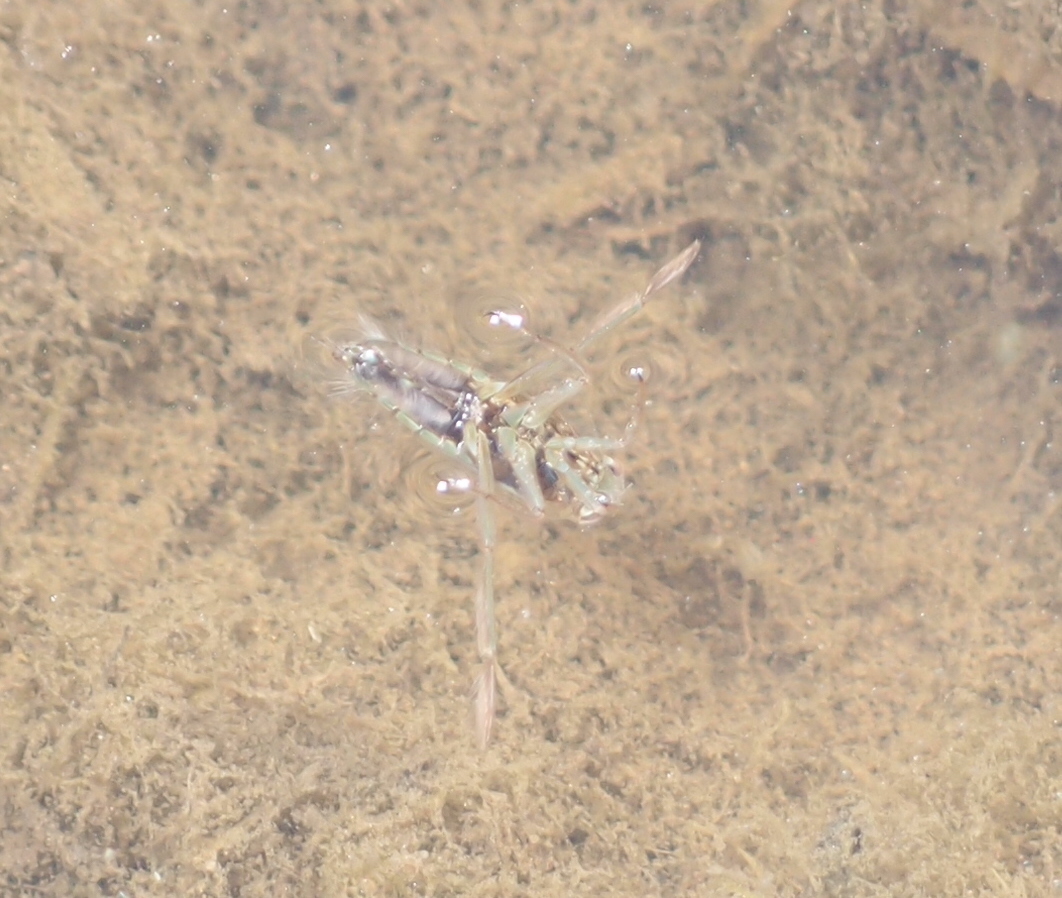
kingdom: Animalia
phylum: Arthropoda
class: Insecta
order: Hemiptera
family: Notonectidae
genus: Notonecta
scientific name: Notonecta
